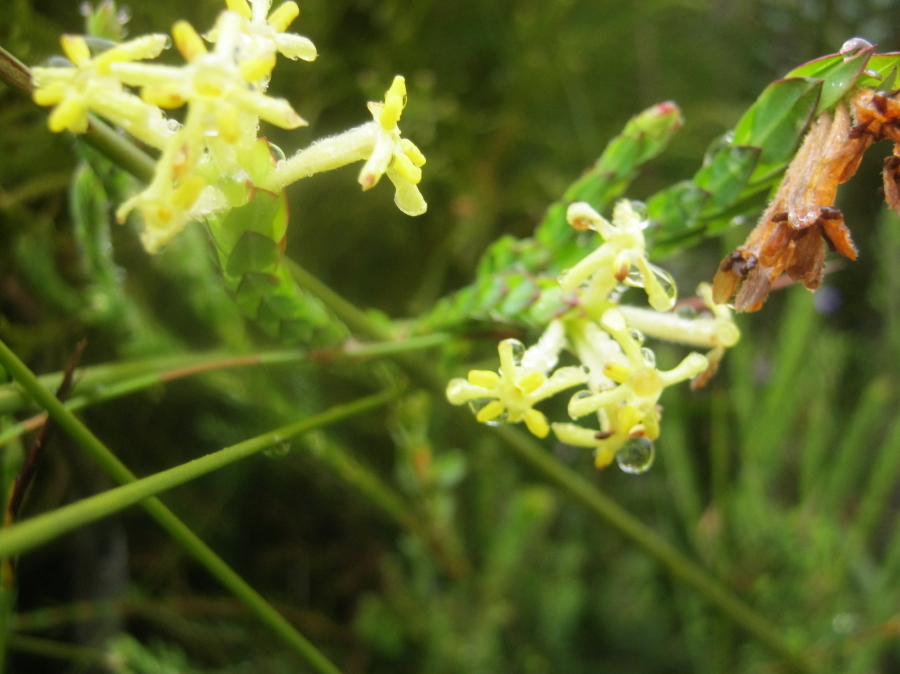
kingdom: Plantae
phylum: Tracheophyta
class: Magnoliopsida
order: Malvales
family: Thymelaeaceae
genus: Gnidia
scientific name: Gnidia oppositifolia
